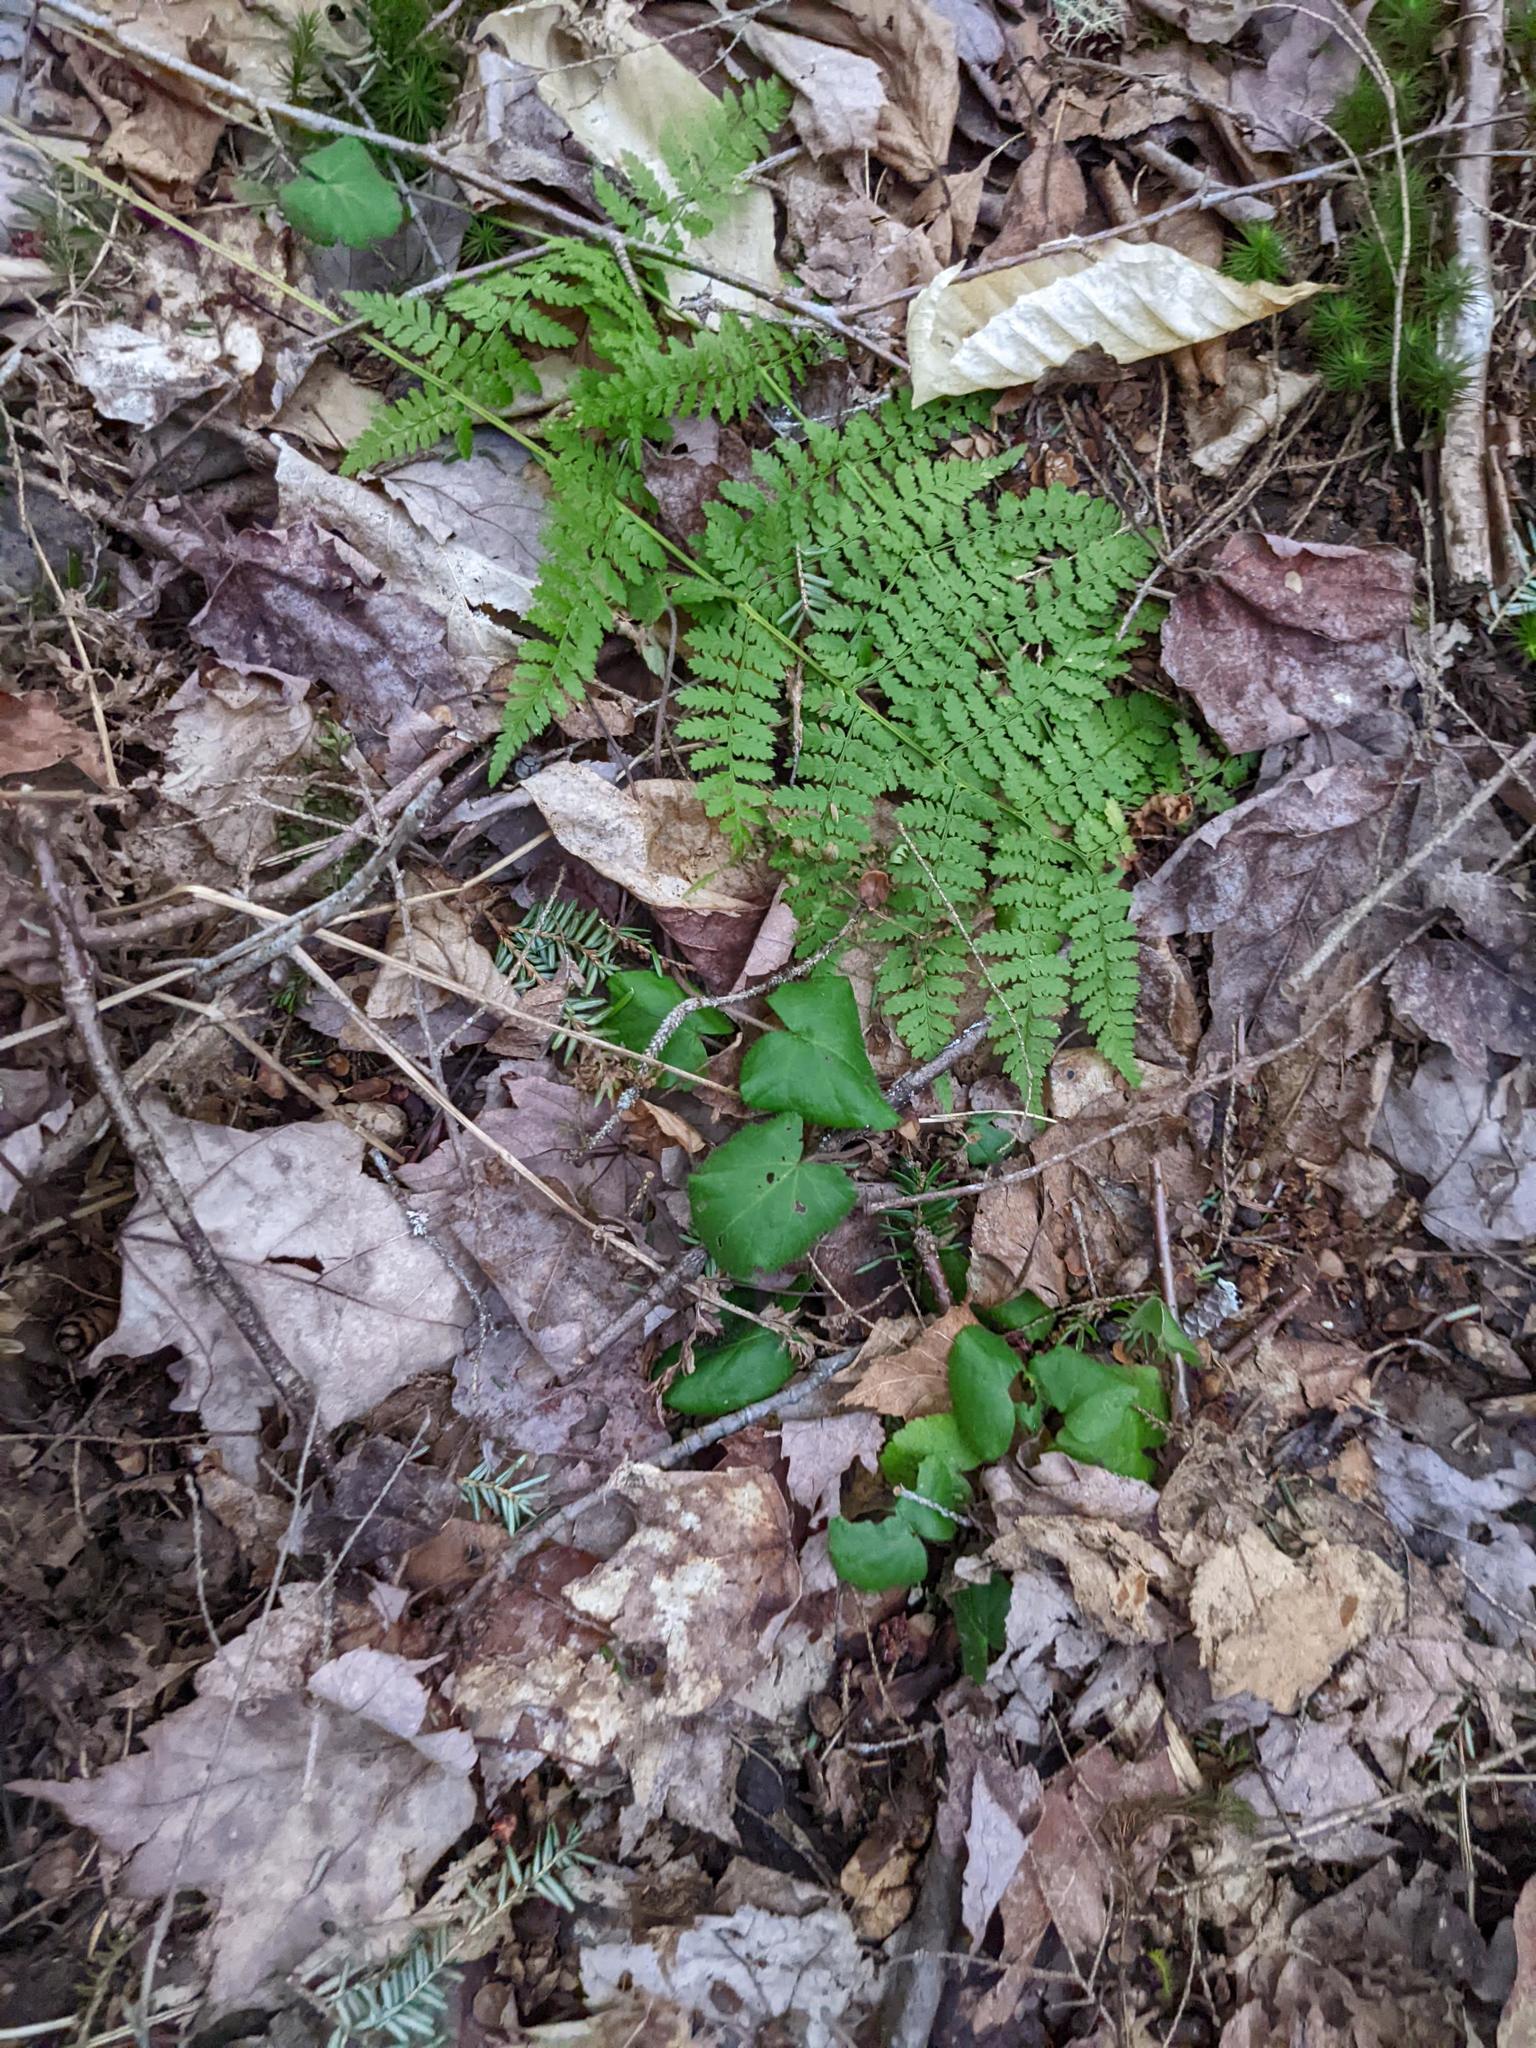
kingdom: Plantae
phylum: Tracheophyta
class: Polypodiopsida
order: Polypodiales
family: Dryopteridaceae
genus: Dryopteris
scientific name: Dryopteris intermedia
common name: Evergreen wood fern
